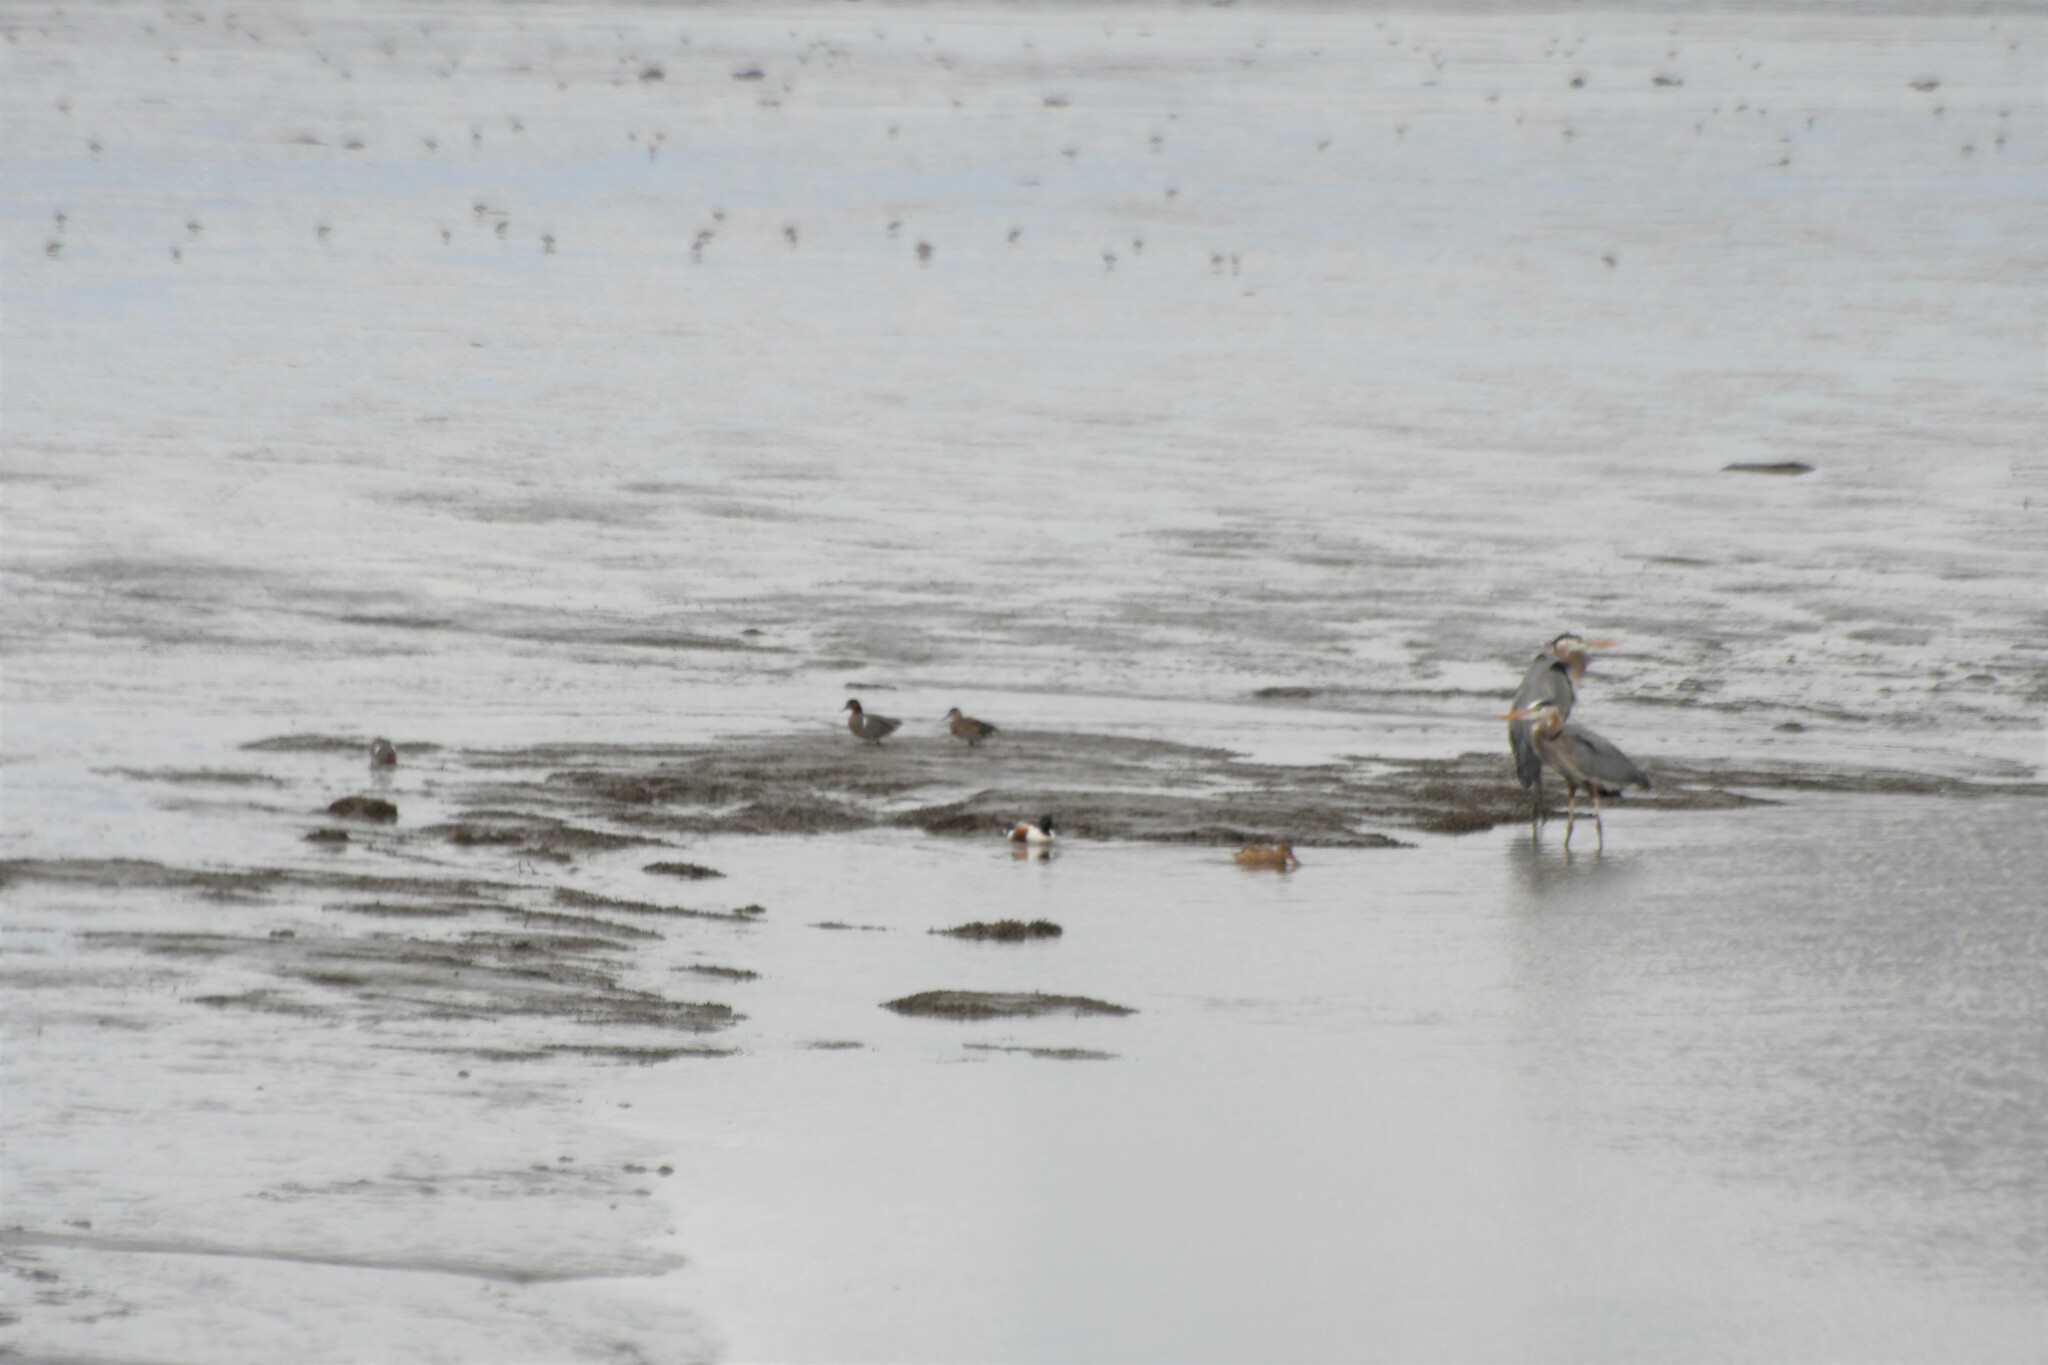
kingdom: Animalia
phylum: Chordata
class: Aves
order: Pelecaniformes
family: Ardeidae
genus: Ardea
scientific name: Ardea herodias
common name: Great blue heron
